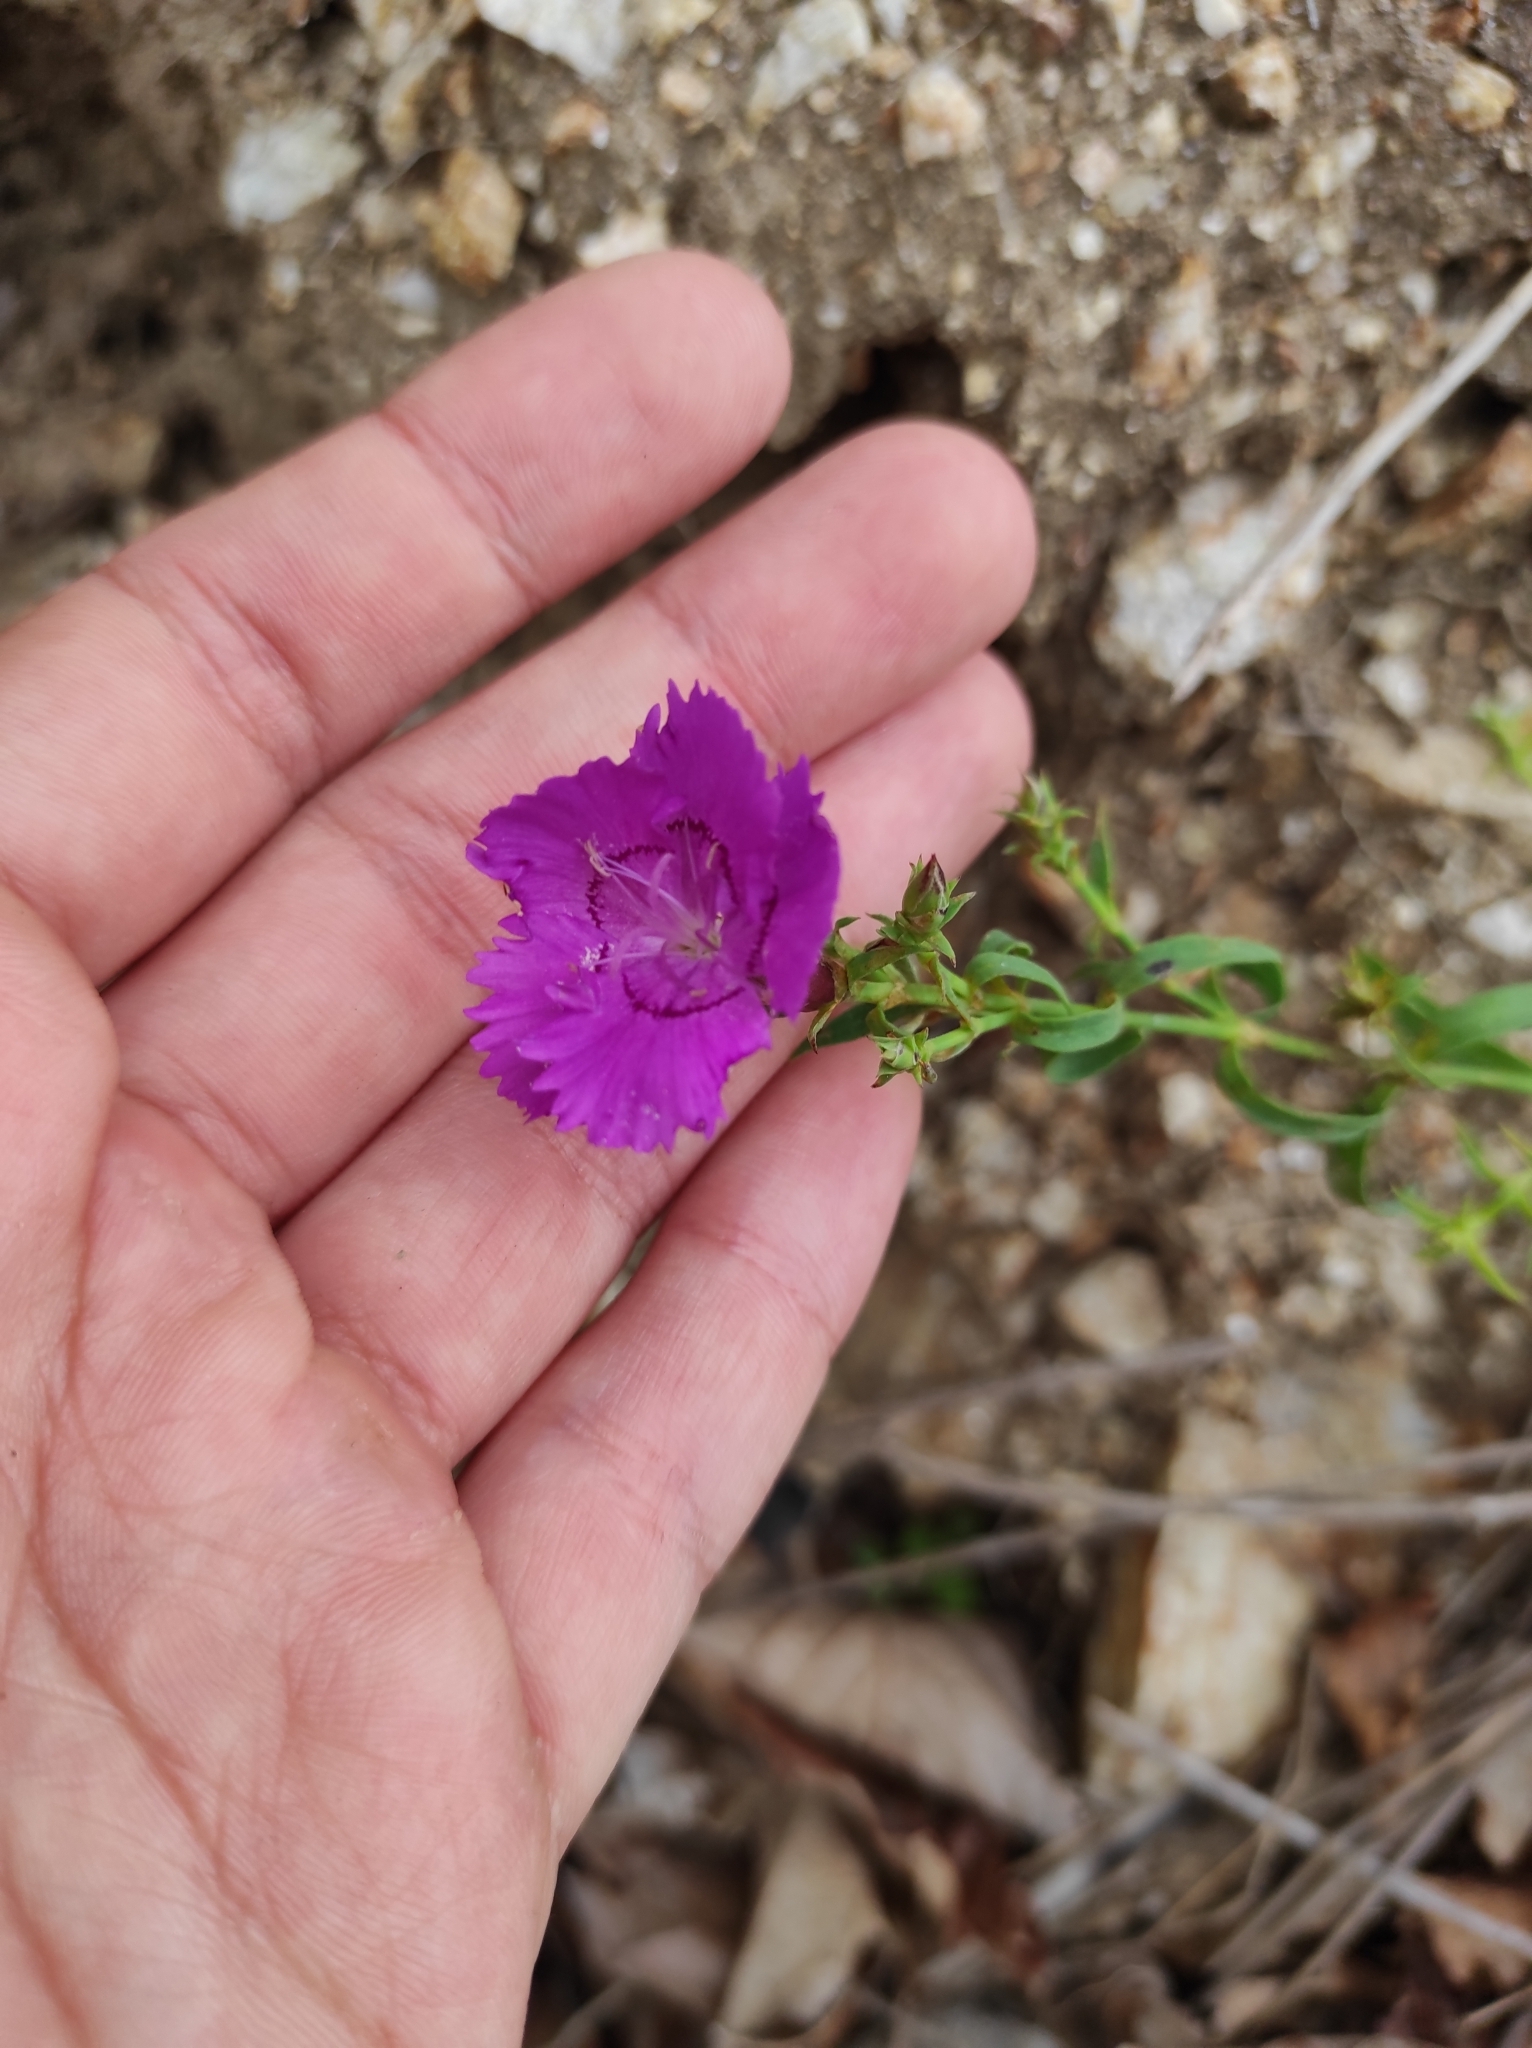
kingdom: Plantae
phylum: Tracheophyta
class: Magnoliopsida
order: Caryophyllales
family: Caryophyllaceae
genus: Dianthus
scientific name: Dianthus chinensis
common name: Rainbow pink
